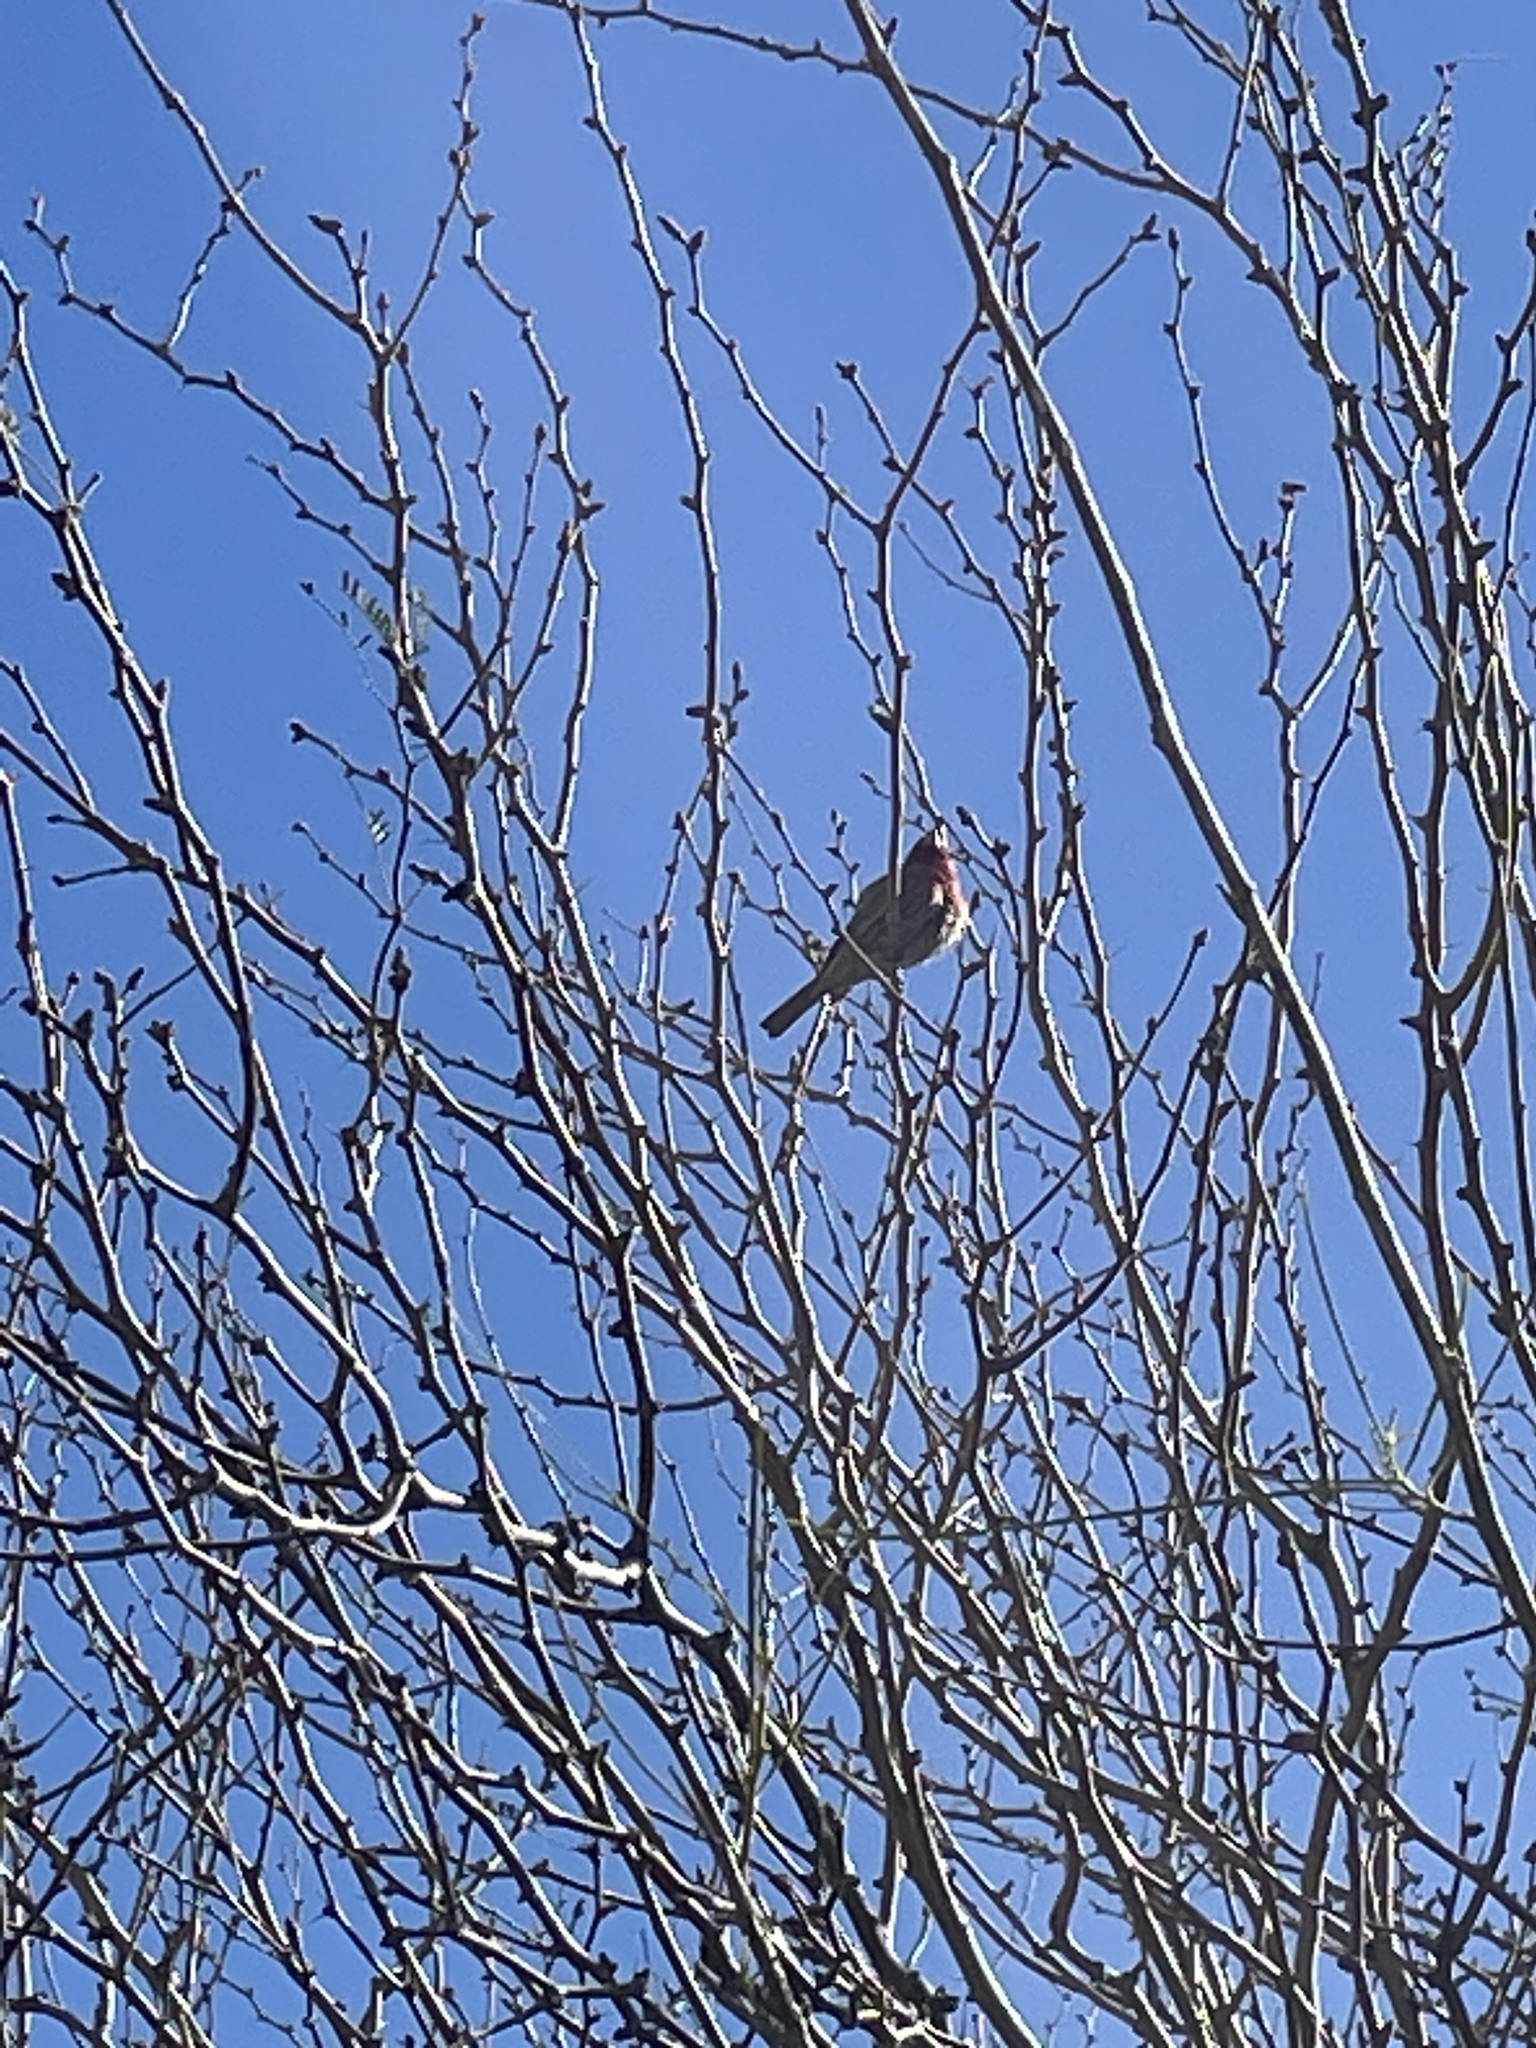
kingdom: Animalia
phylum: Chordata
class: Aves
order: Passeriformes
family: Fringillidae
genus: Haemorhous
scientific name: Haemorhous mexicanus
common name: House finch
